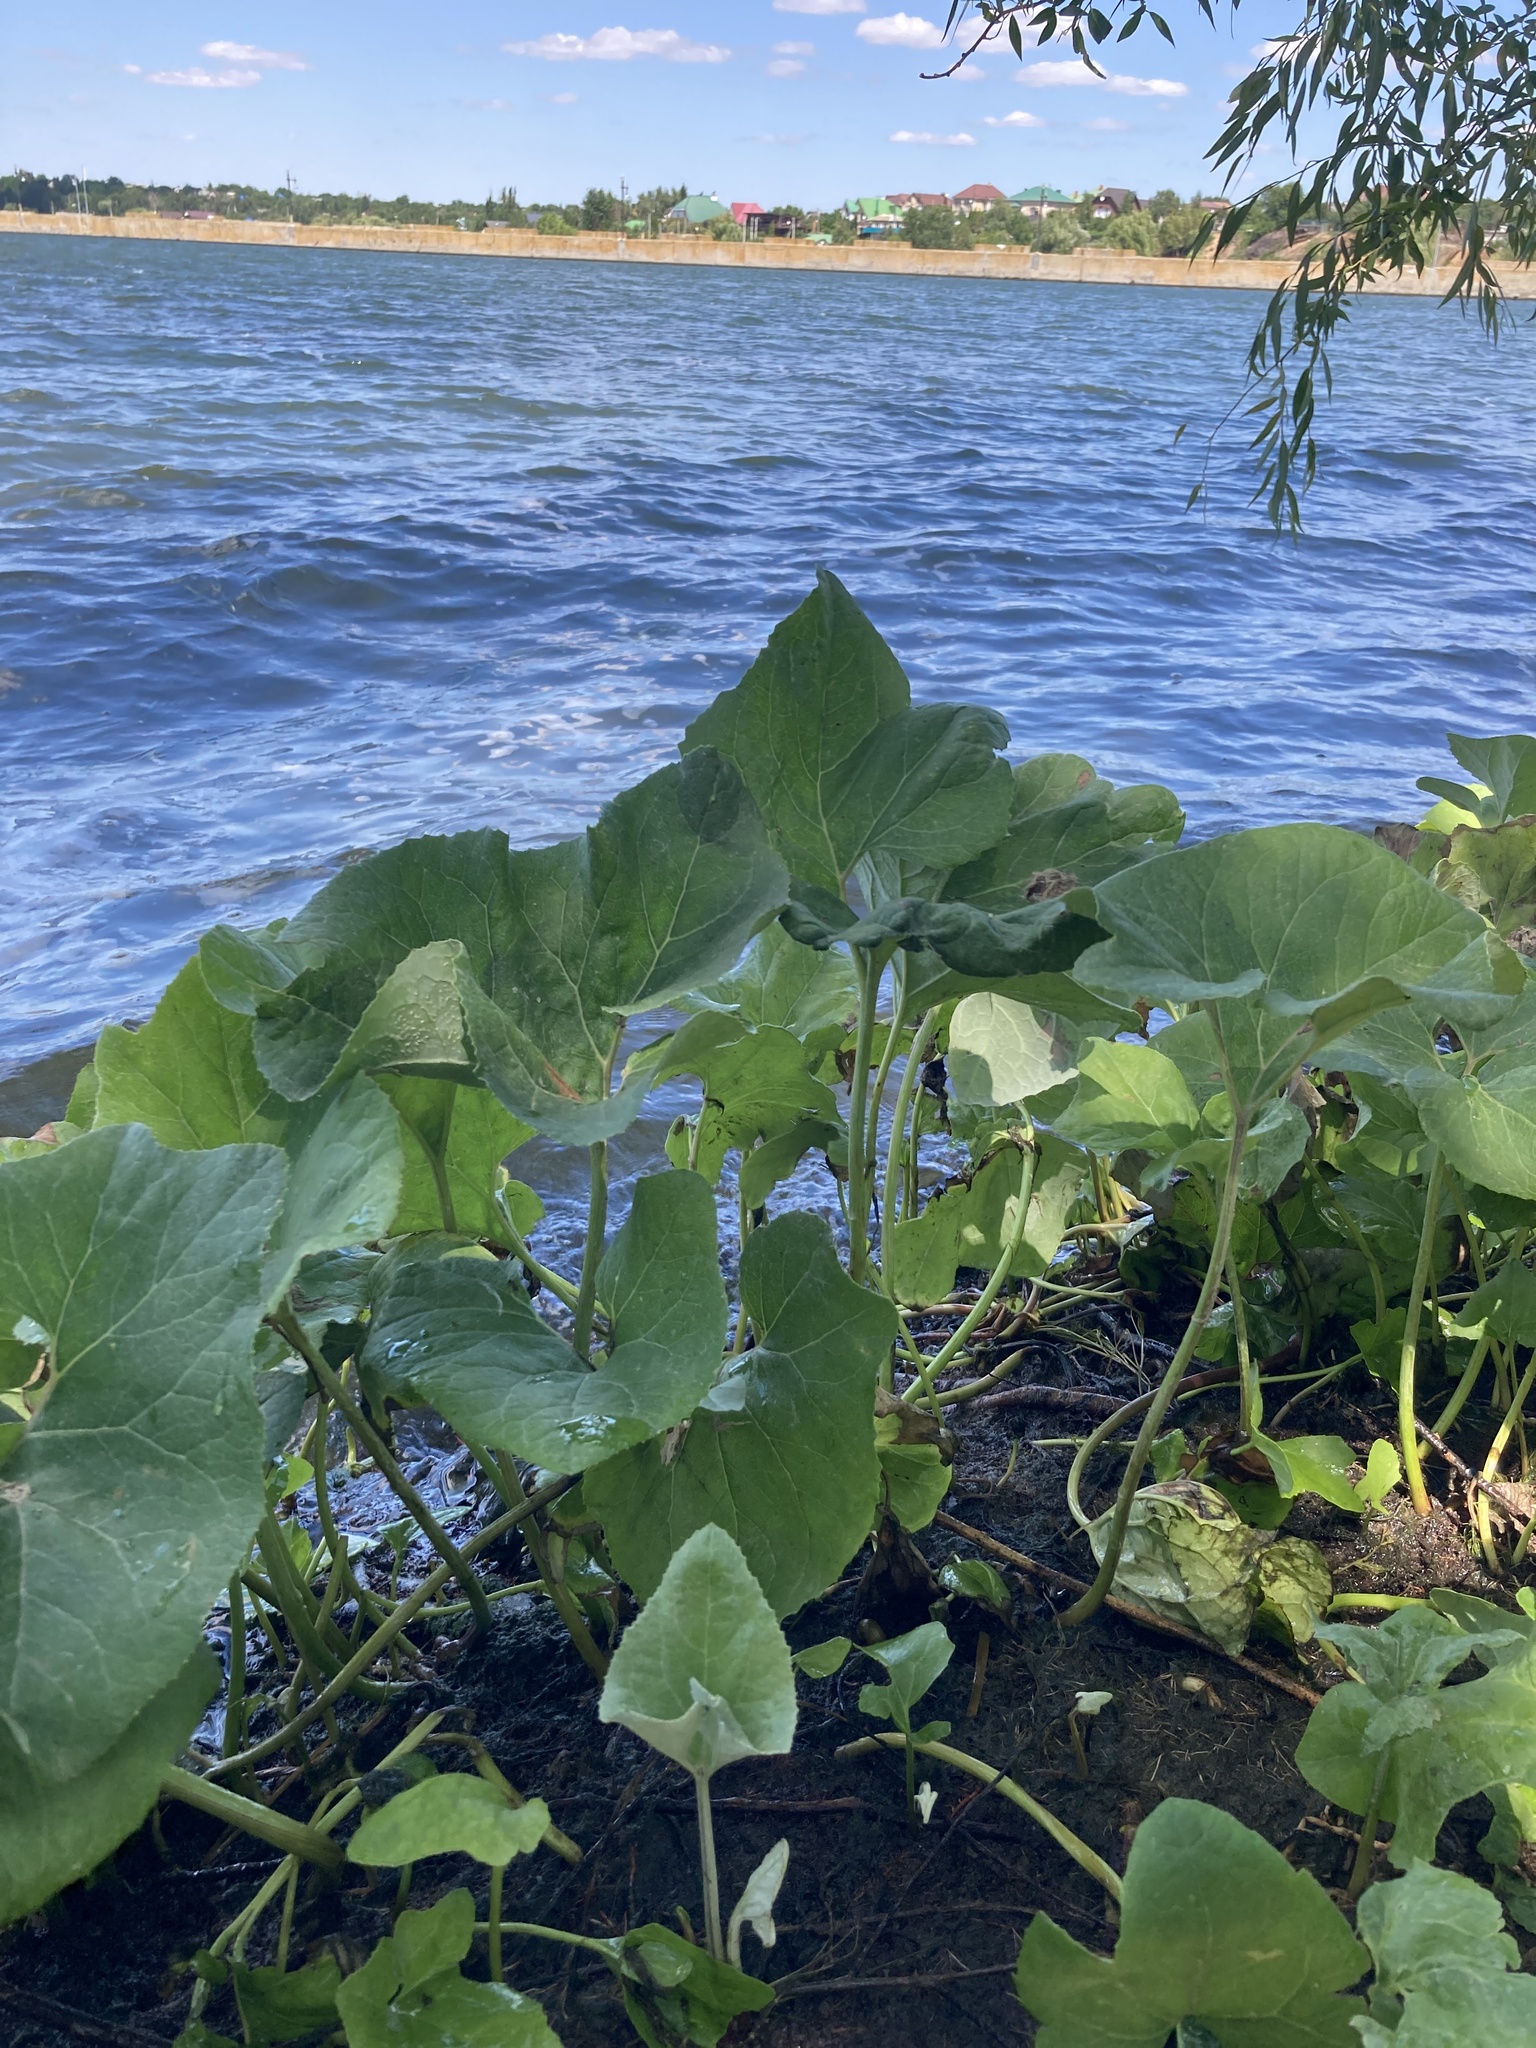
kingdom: Plantae
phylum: Tracheophyta
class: Magnoliopsida
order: Asterales
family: Asteraceae
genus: Petasites
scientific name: Petasites spurius
